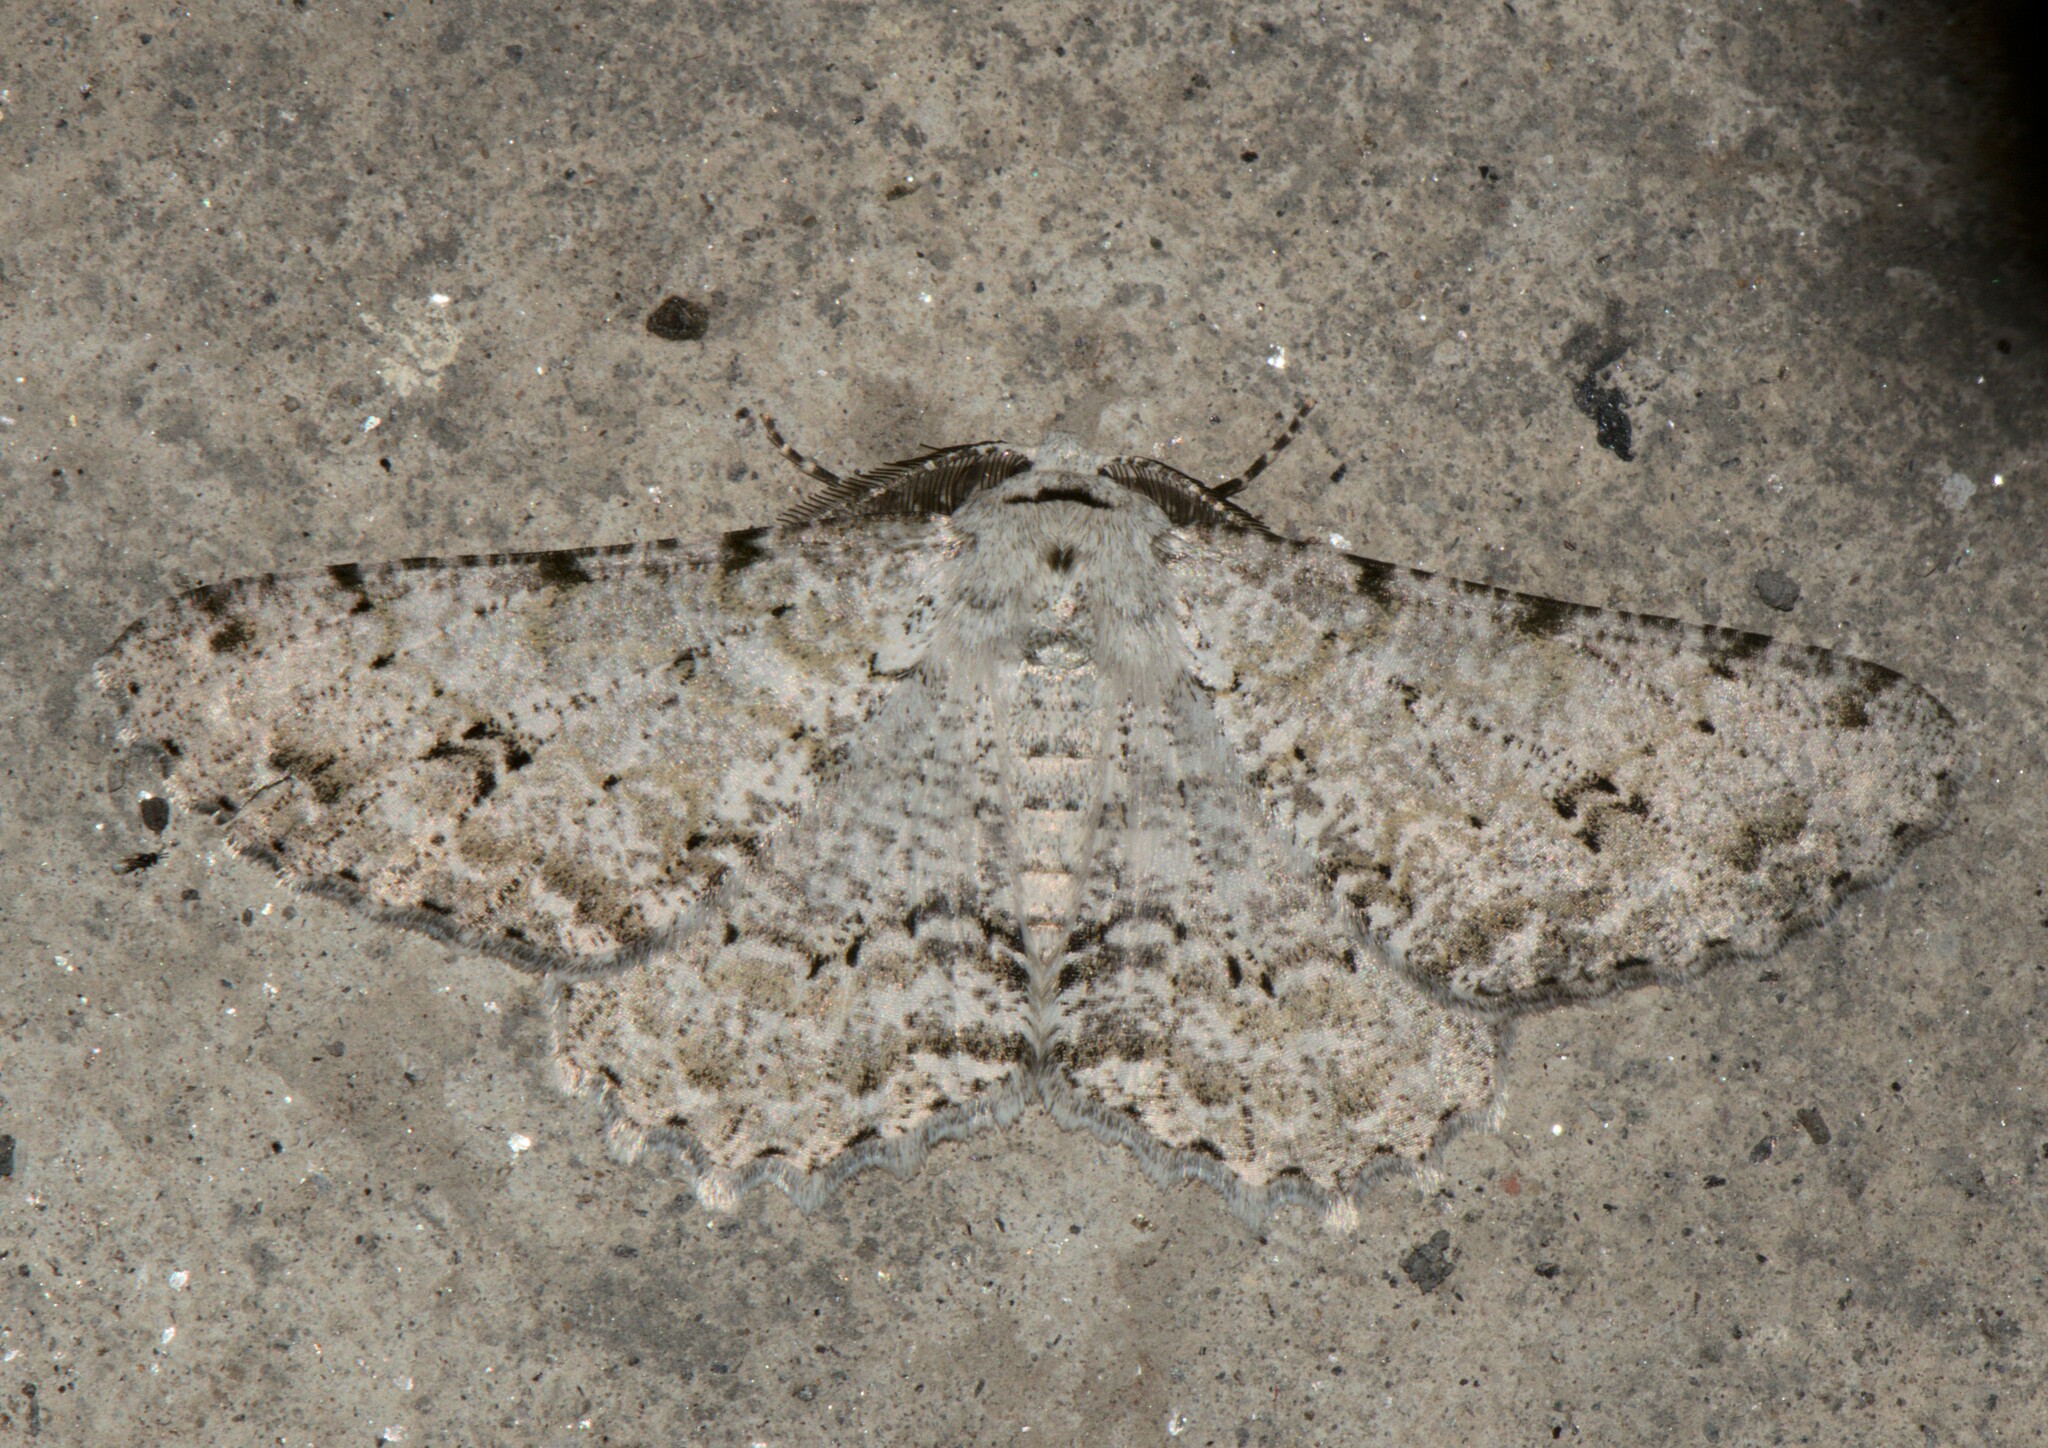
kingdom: Animalia
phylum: Arthropoda
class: Insecta
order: Lepidoptera
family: Geometridae
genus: Lassaba
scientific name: Lassaba albidaria
